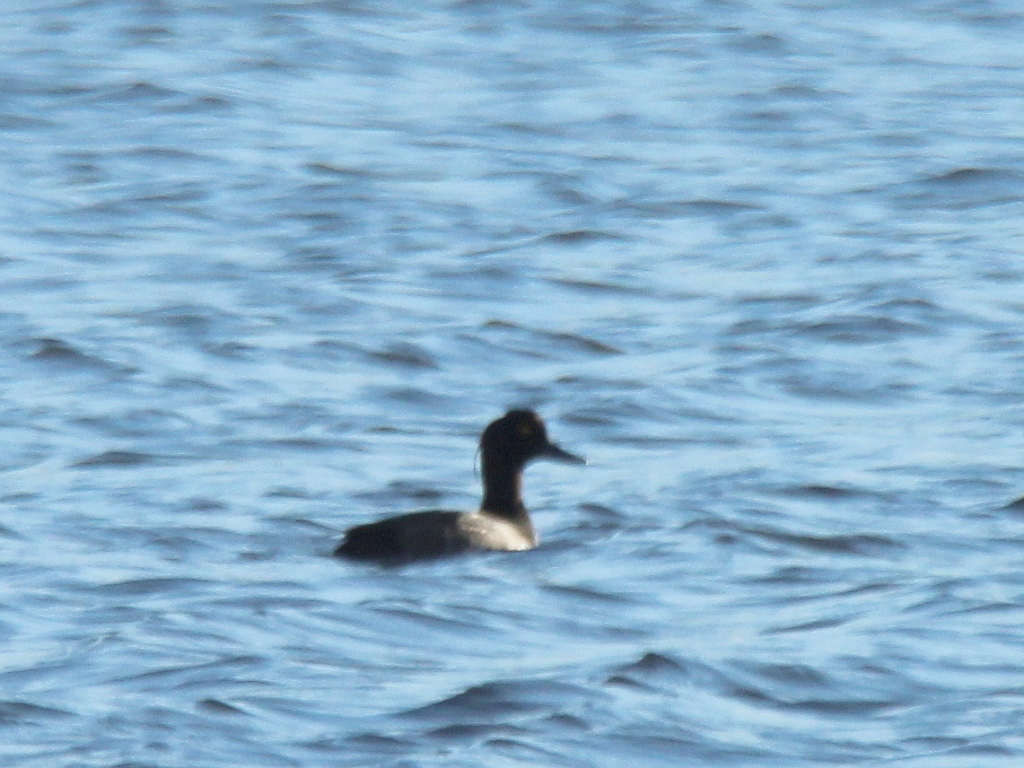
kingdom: Animalia
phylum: Chordata
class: Aves
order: Anseriformes
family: Anatidae
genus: Aythya
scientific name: Aythya fuligula
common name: Tufted duck
